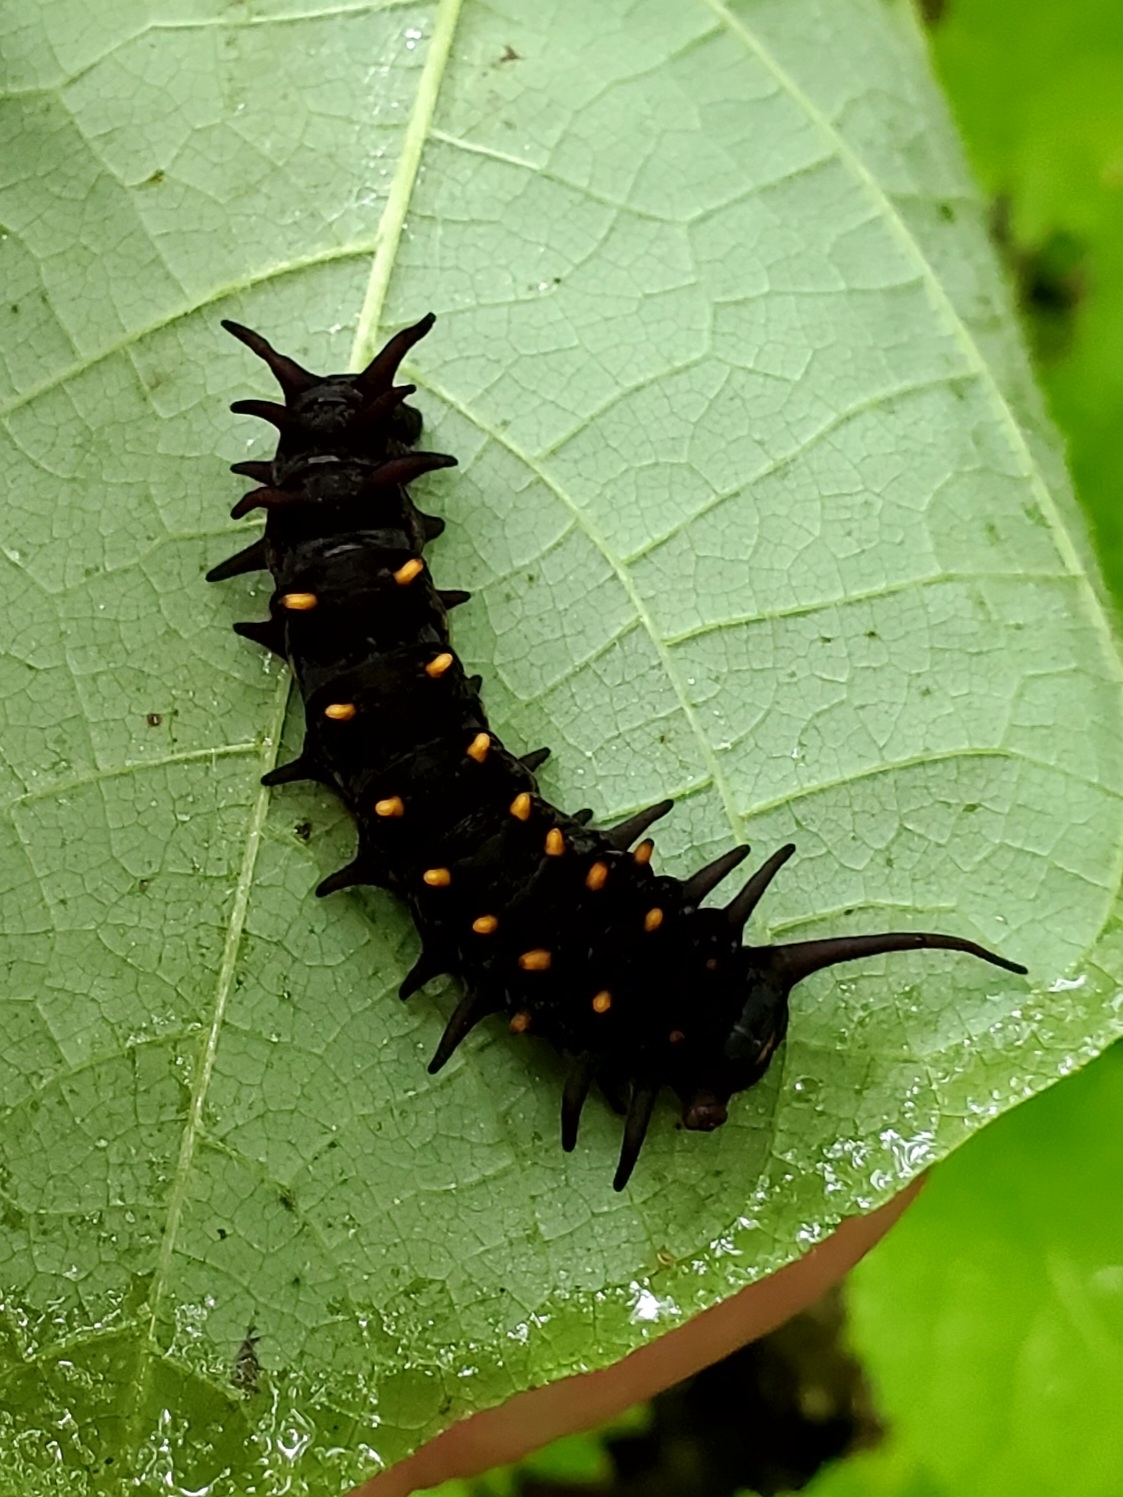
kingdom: Animalia
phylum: Arthropoda
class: Insecta
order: Lepidoptera
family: Papilionidae
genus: Battus
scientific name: Battus philenor
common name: Pipevine swallowtail
